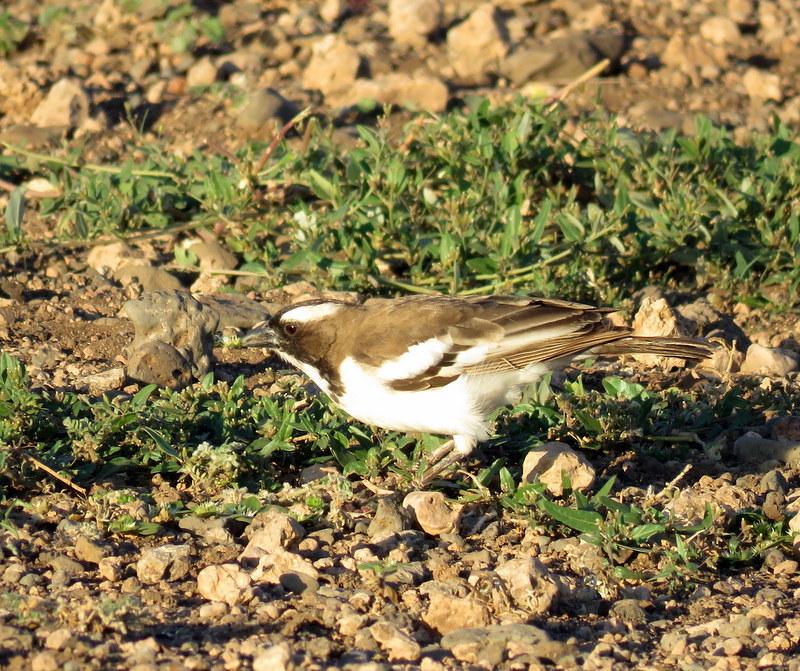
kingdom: Animalia
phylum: Chordata
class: Aves
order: Passeriformes
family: Passeridae
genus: Plocepasser
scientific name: Plocepasser mahali
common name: White-browed sparrow-weaver
